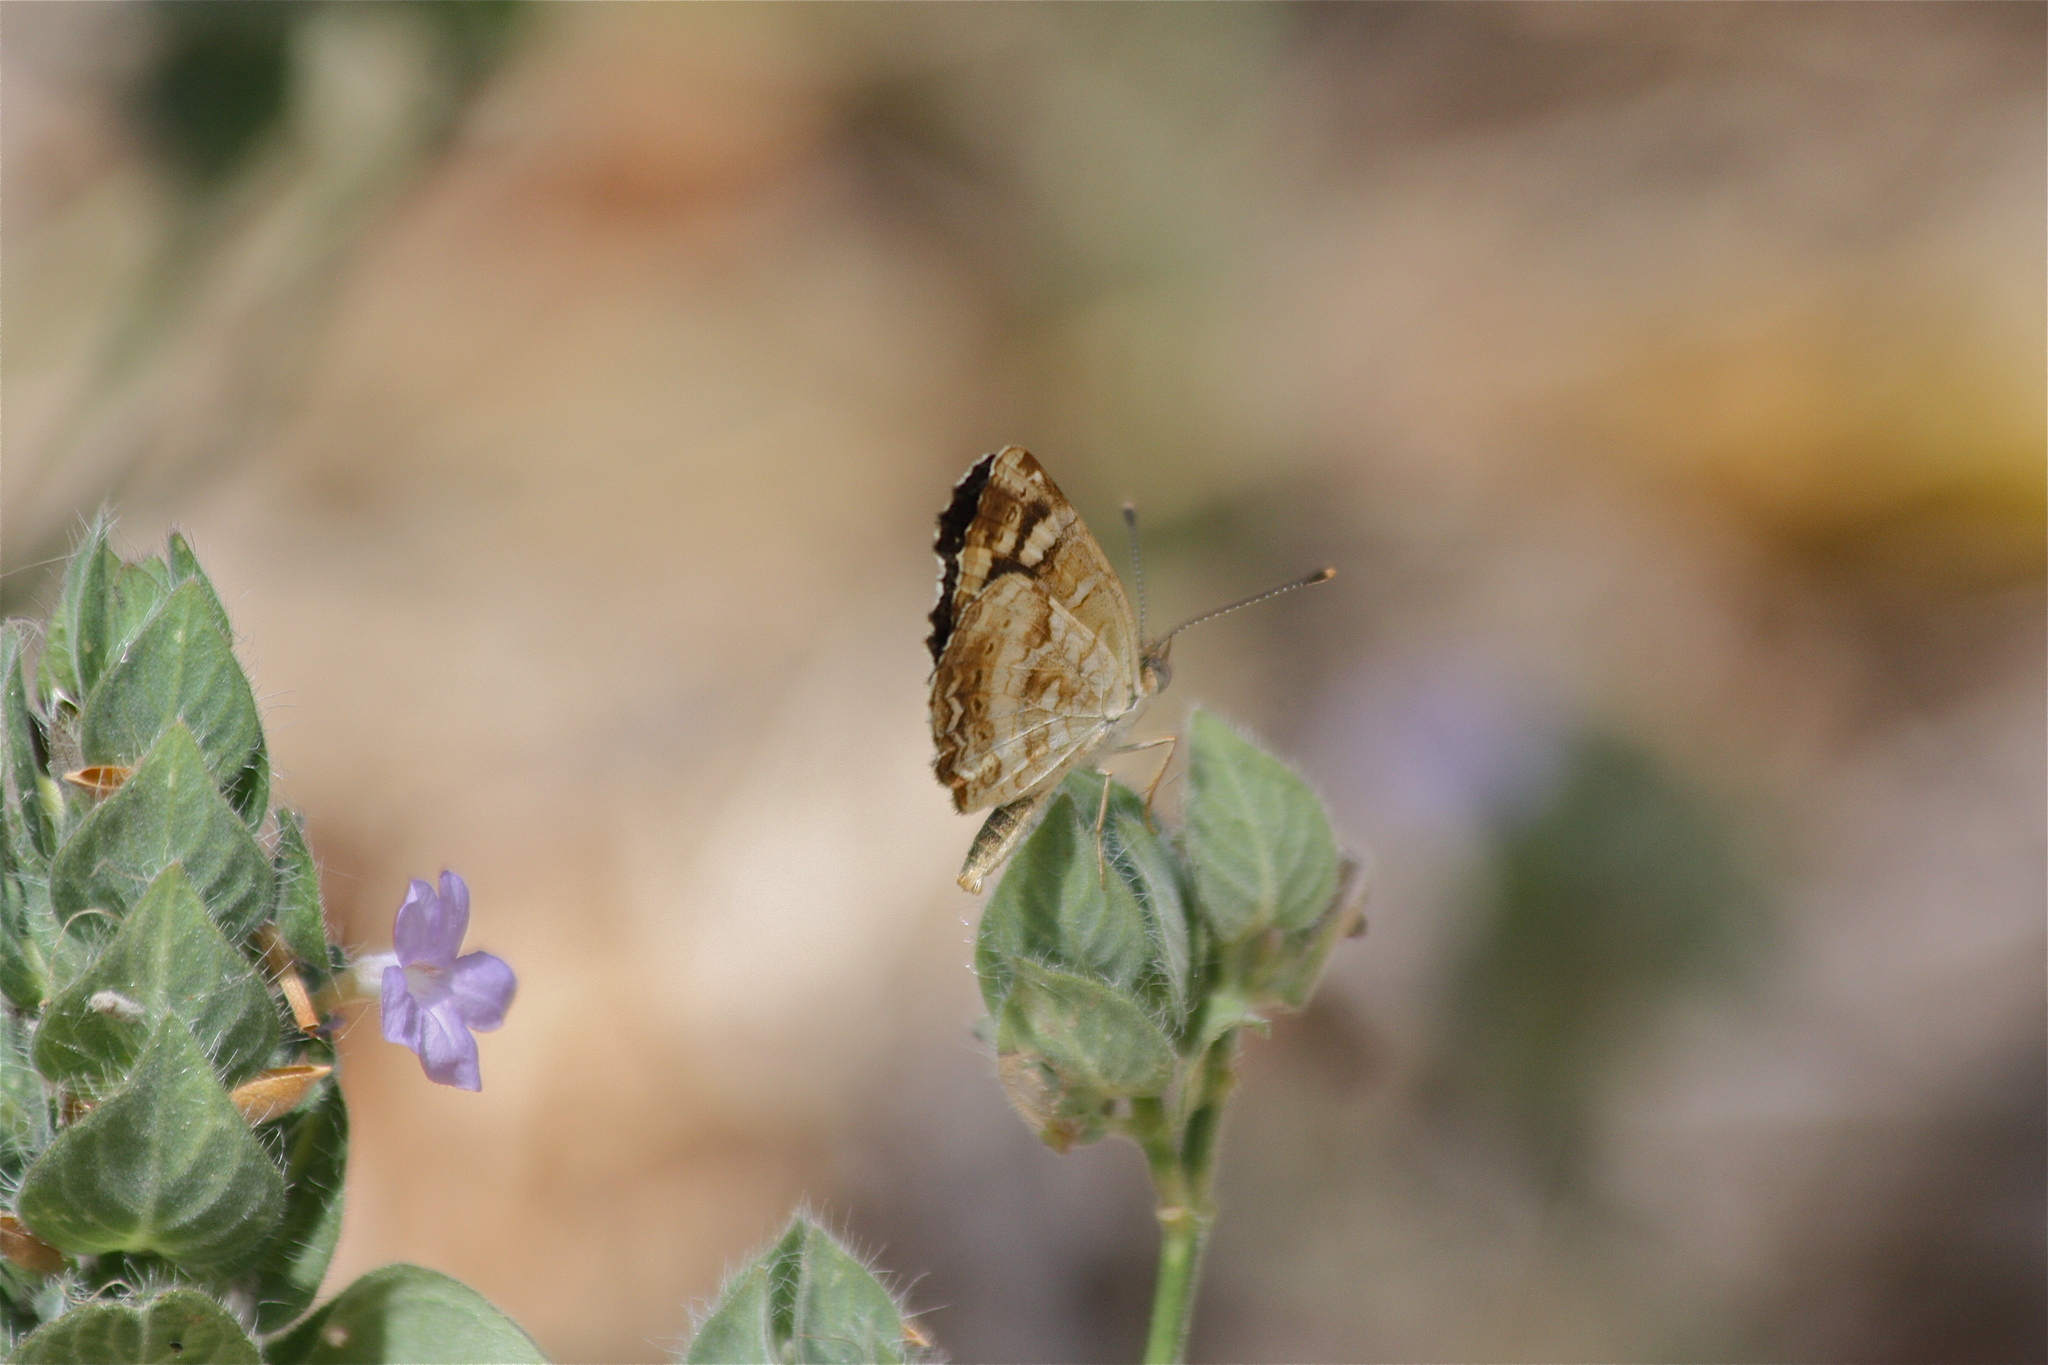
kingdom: Animalia
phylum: Arthropoda
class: Insecta
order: Lepidoptera
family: Nymphalidae
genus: Anthanassa
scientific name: Anthanassa tulcis
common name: Pale-banded crescent
